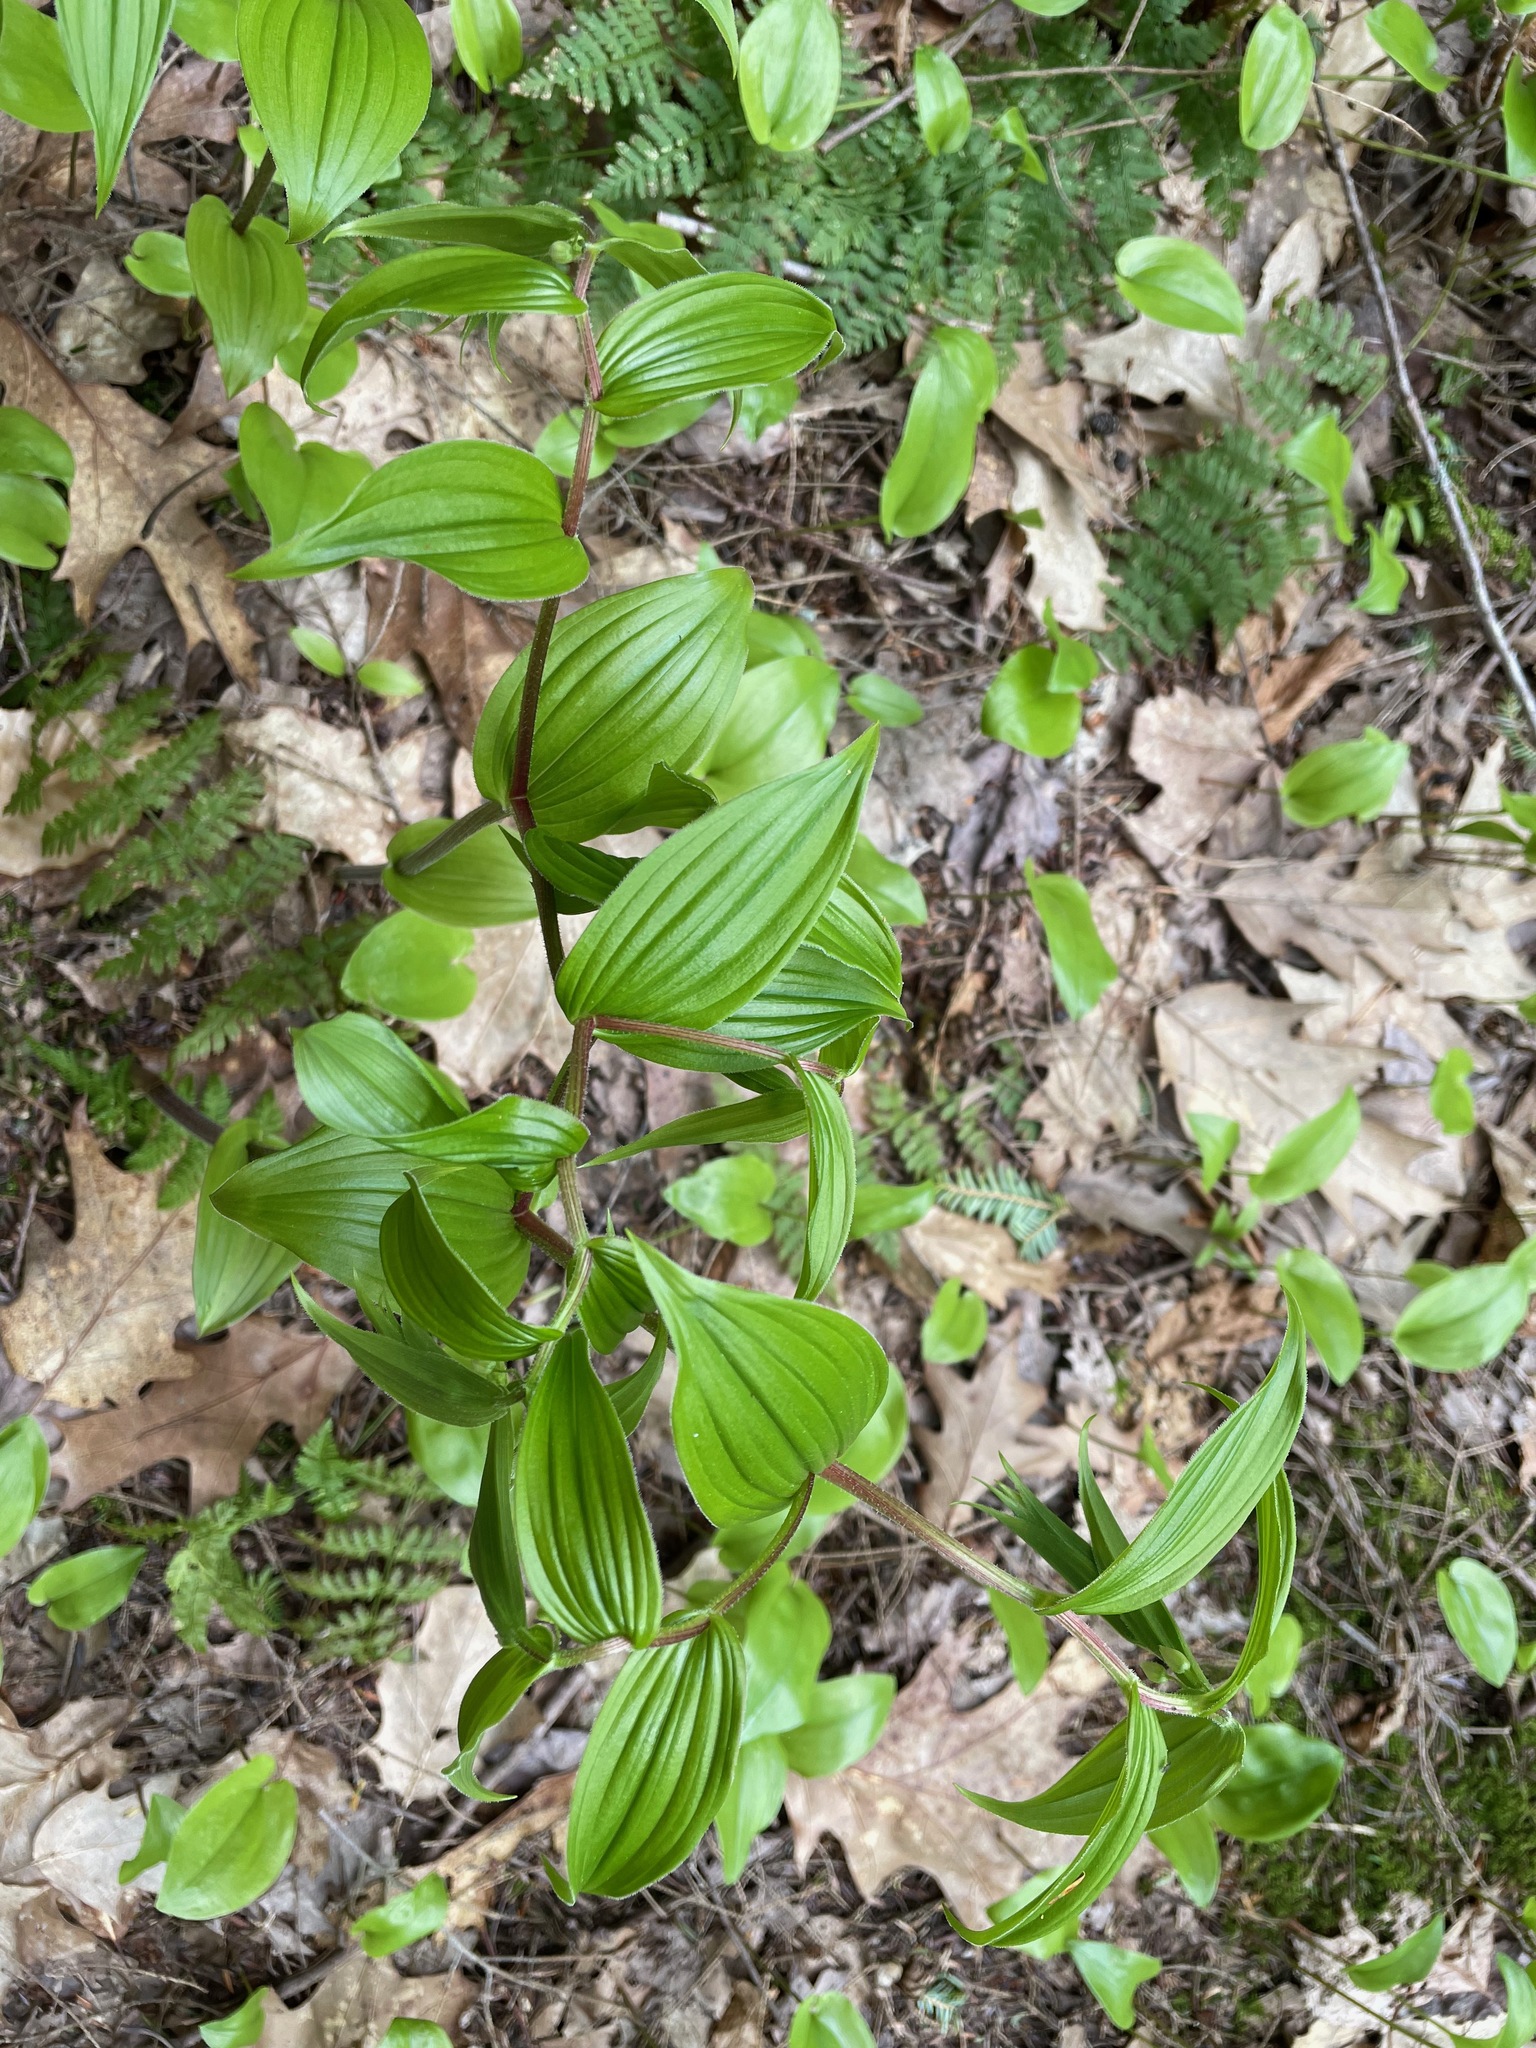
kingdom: Plantae
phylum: Tracheophyta
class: Liliopsida
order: Liliales
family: Liliaceae
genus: Streptopus
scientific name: Streptopus lanceolatus
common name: Rose mandarin
